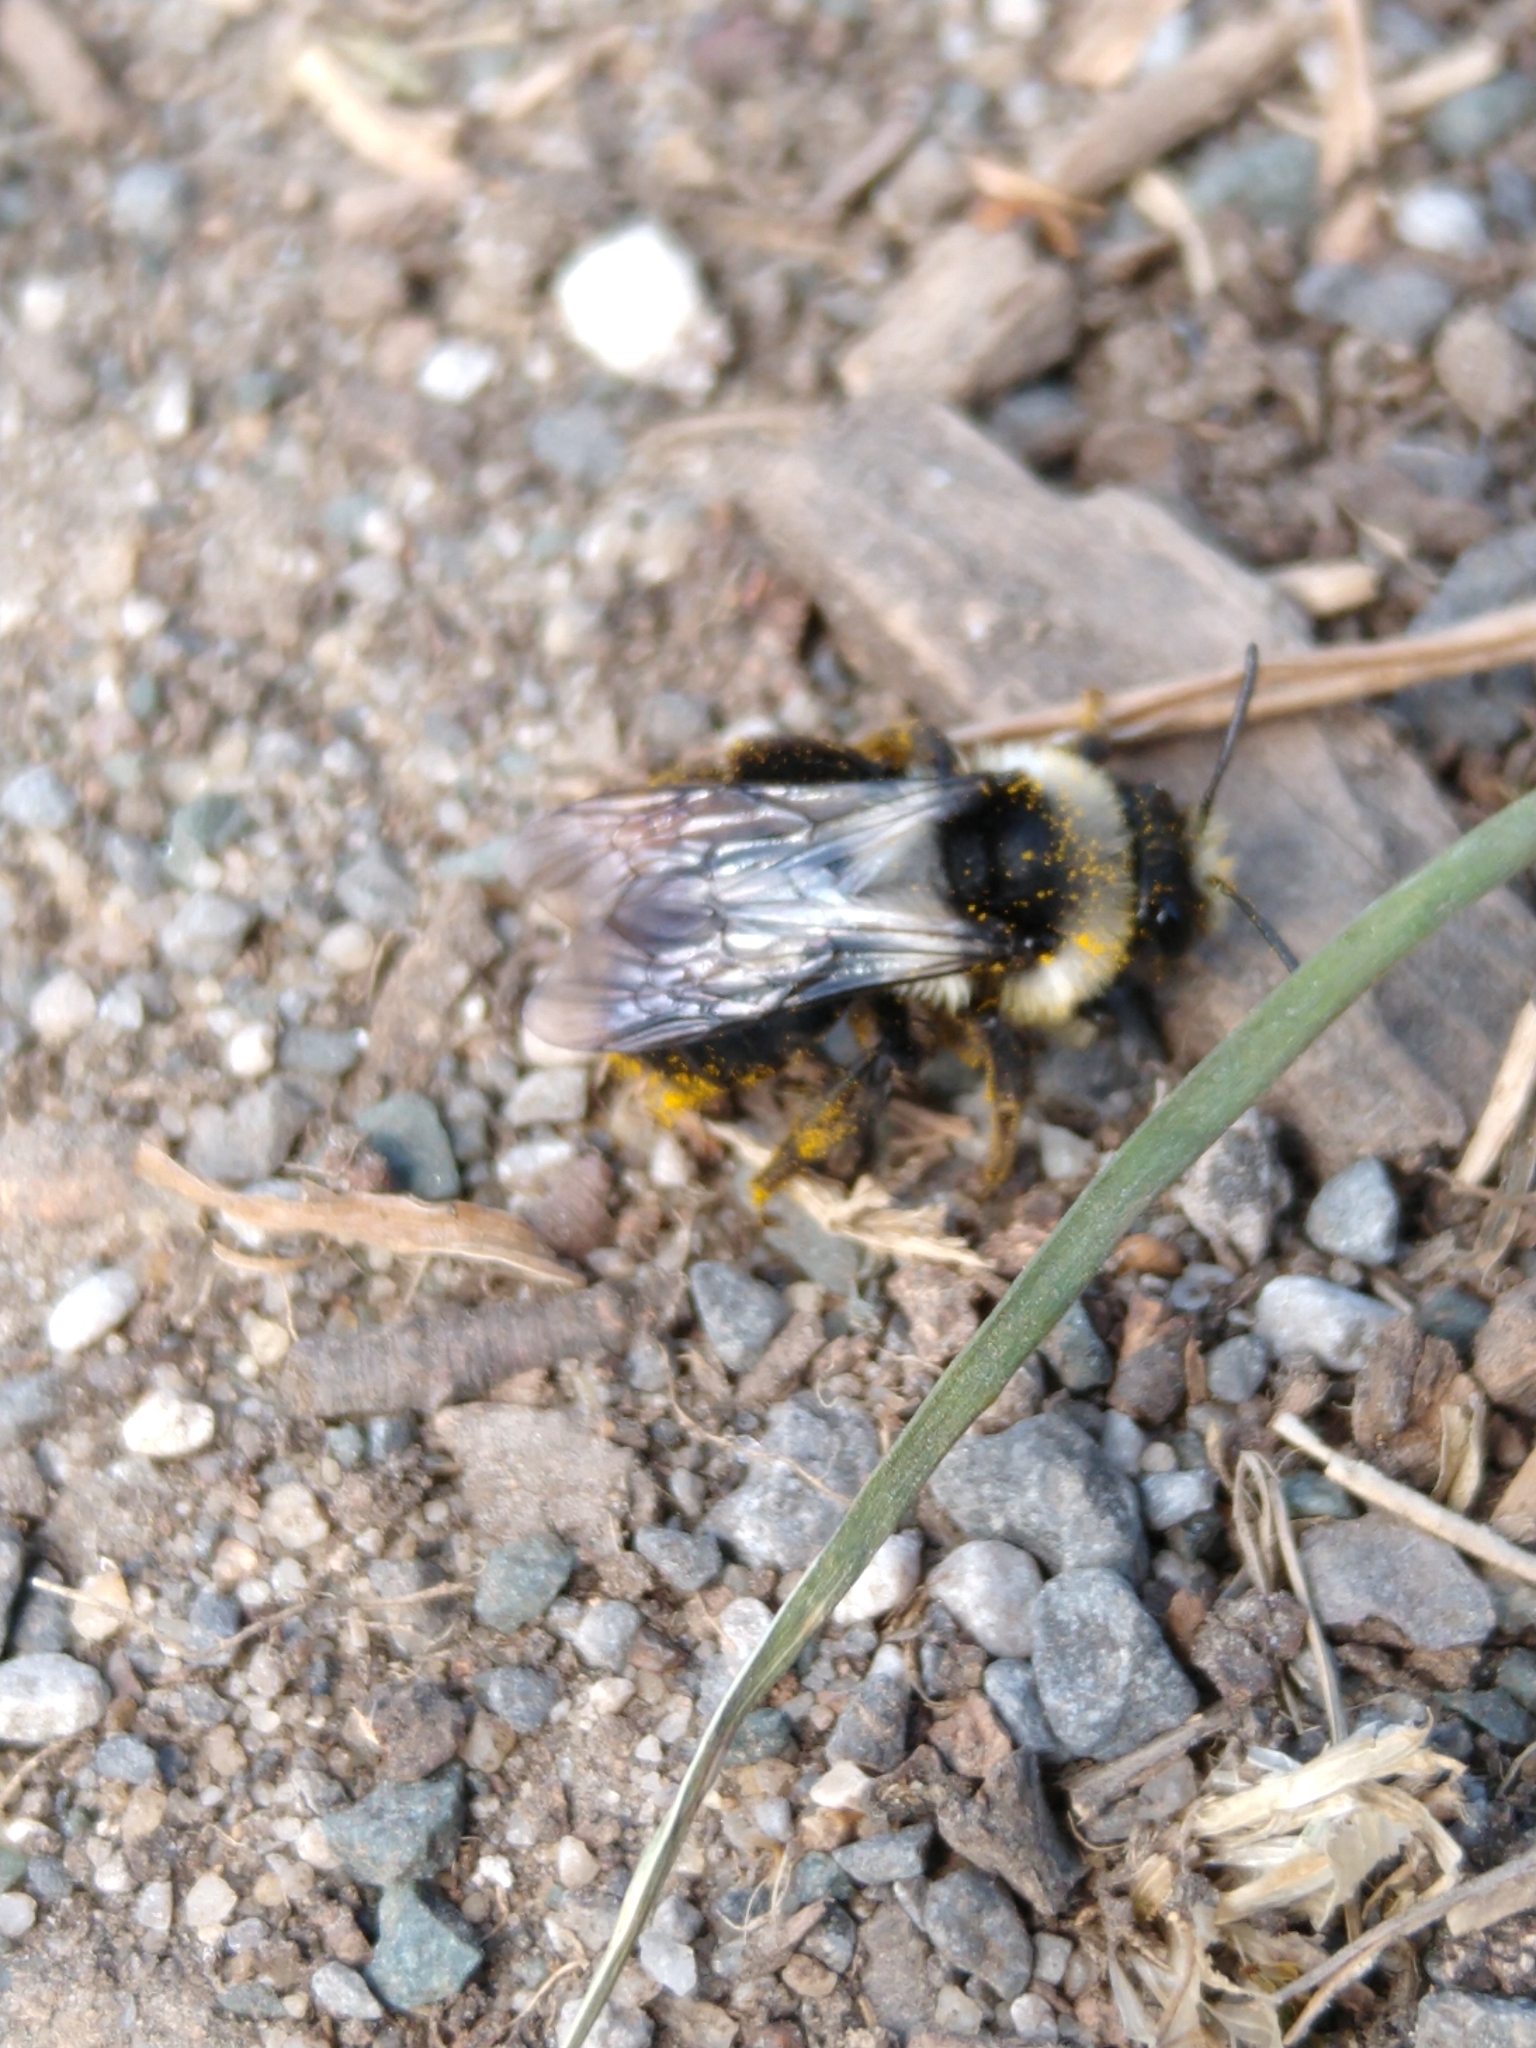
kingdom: Animalia
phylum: Arthropoda
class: Insecta
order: Hymenoptera
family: Andrenidae
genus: Andrena
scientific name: Andrena cineraria
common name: Ashy mining bee
